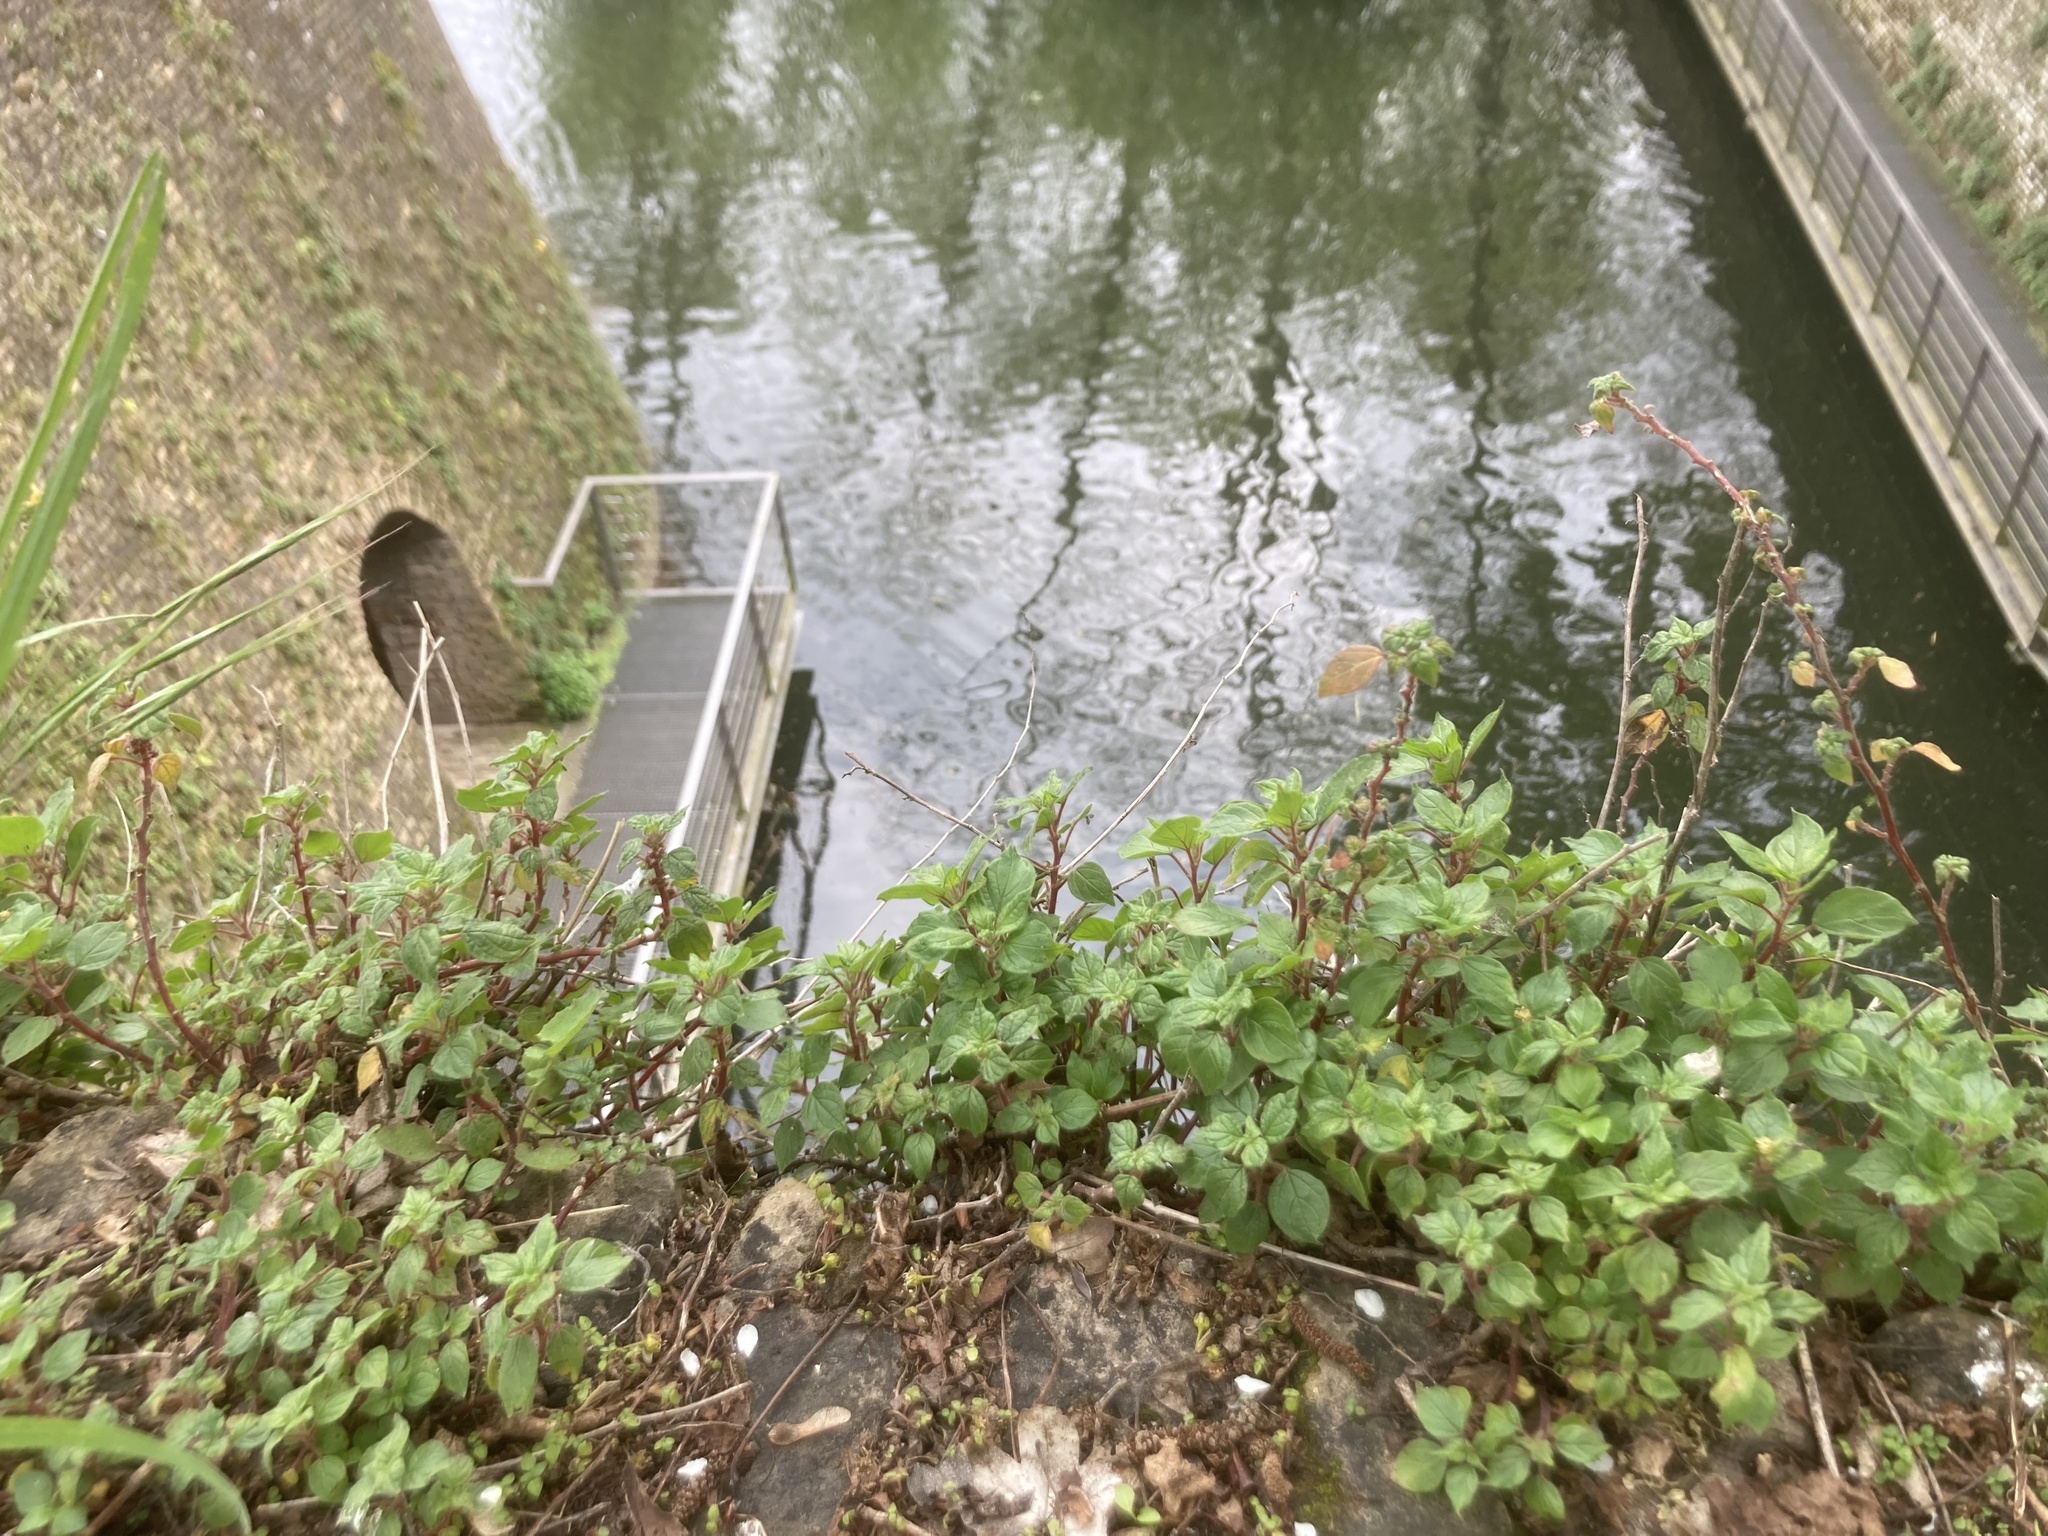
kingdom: Plantae
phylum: Tracheophyta
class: Magnoliopsida
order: Rosales
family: Urticaceae
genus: Parietaria
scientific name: Parietaria judaica
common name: Pellitory-of-the-wall
